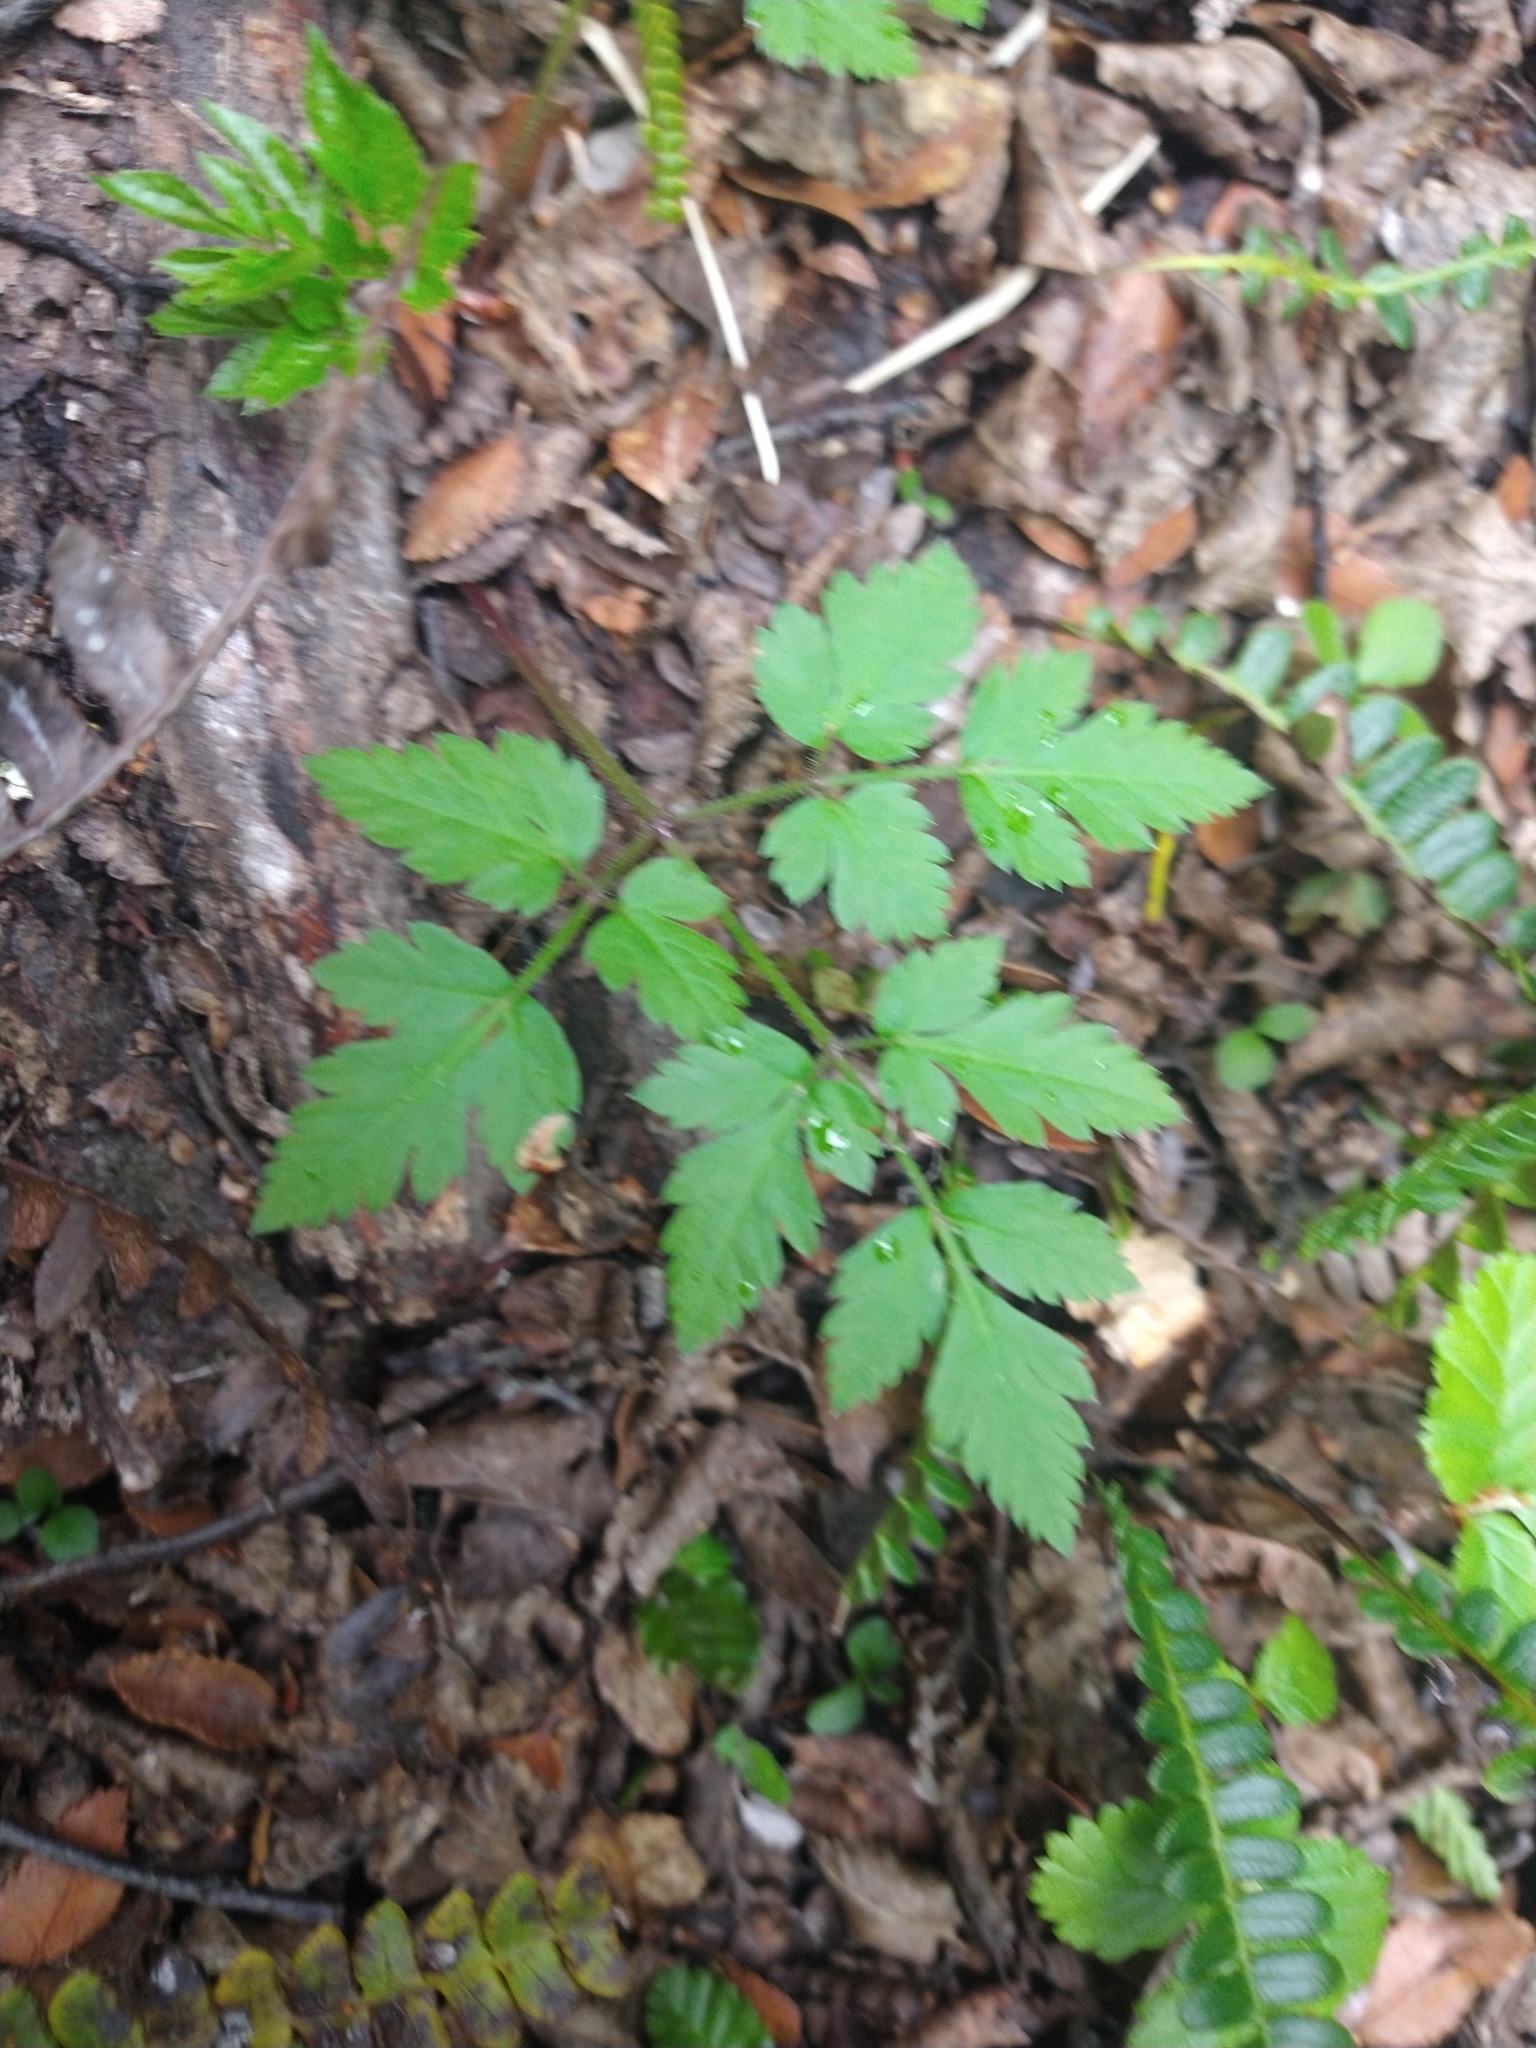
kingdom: Plantae
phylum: Tracheophyta
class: Magnoliopsida
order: Apiales
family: Apiaceae
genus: Osmorhiza
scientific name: Osmorhiza berteroi
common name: Mountain sweet cicely
